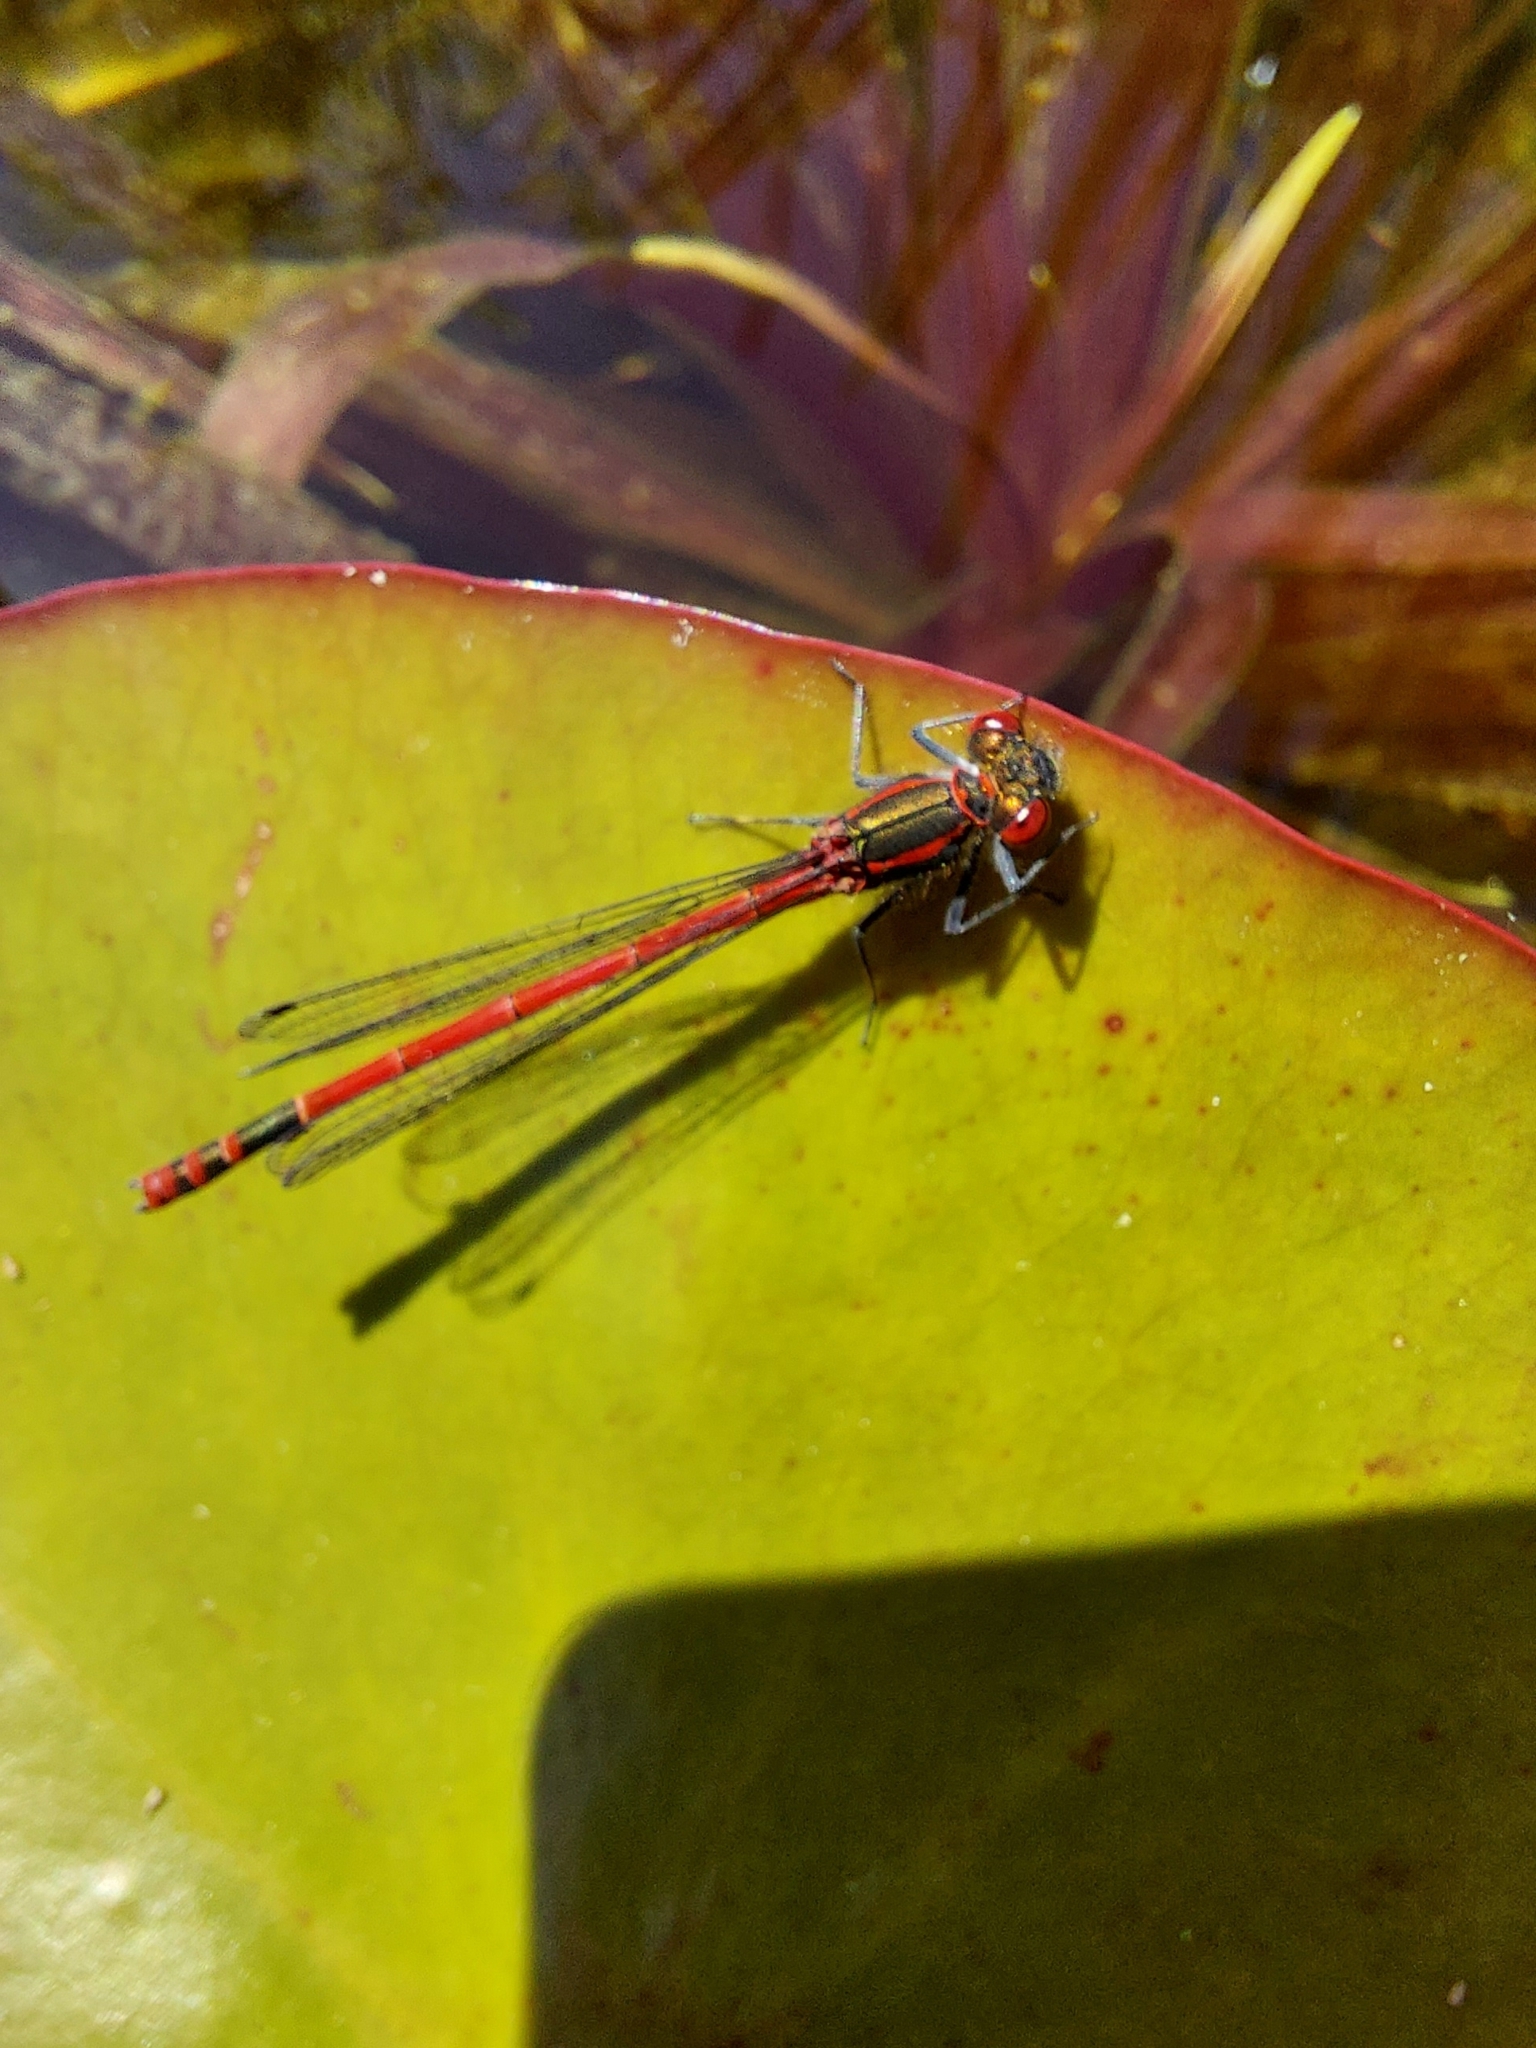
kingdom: Animalia
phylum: Arthropoda
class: Insecta
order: Odonata
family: Coenagrionidae
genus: Pyrrhosoma
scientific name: Pyrrhosoma nymphula
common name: Large red damsel
